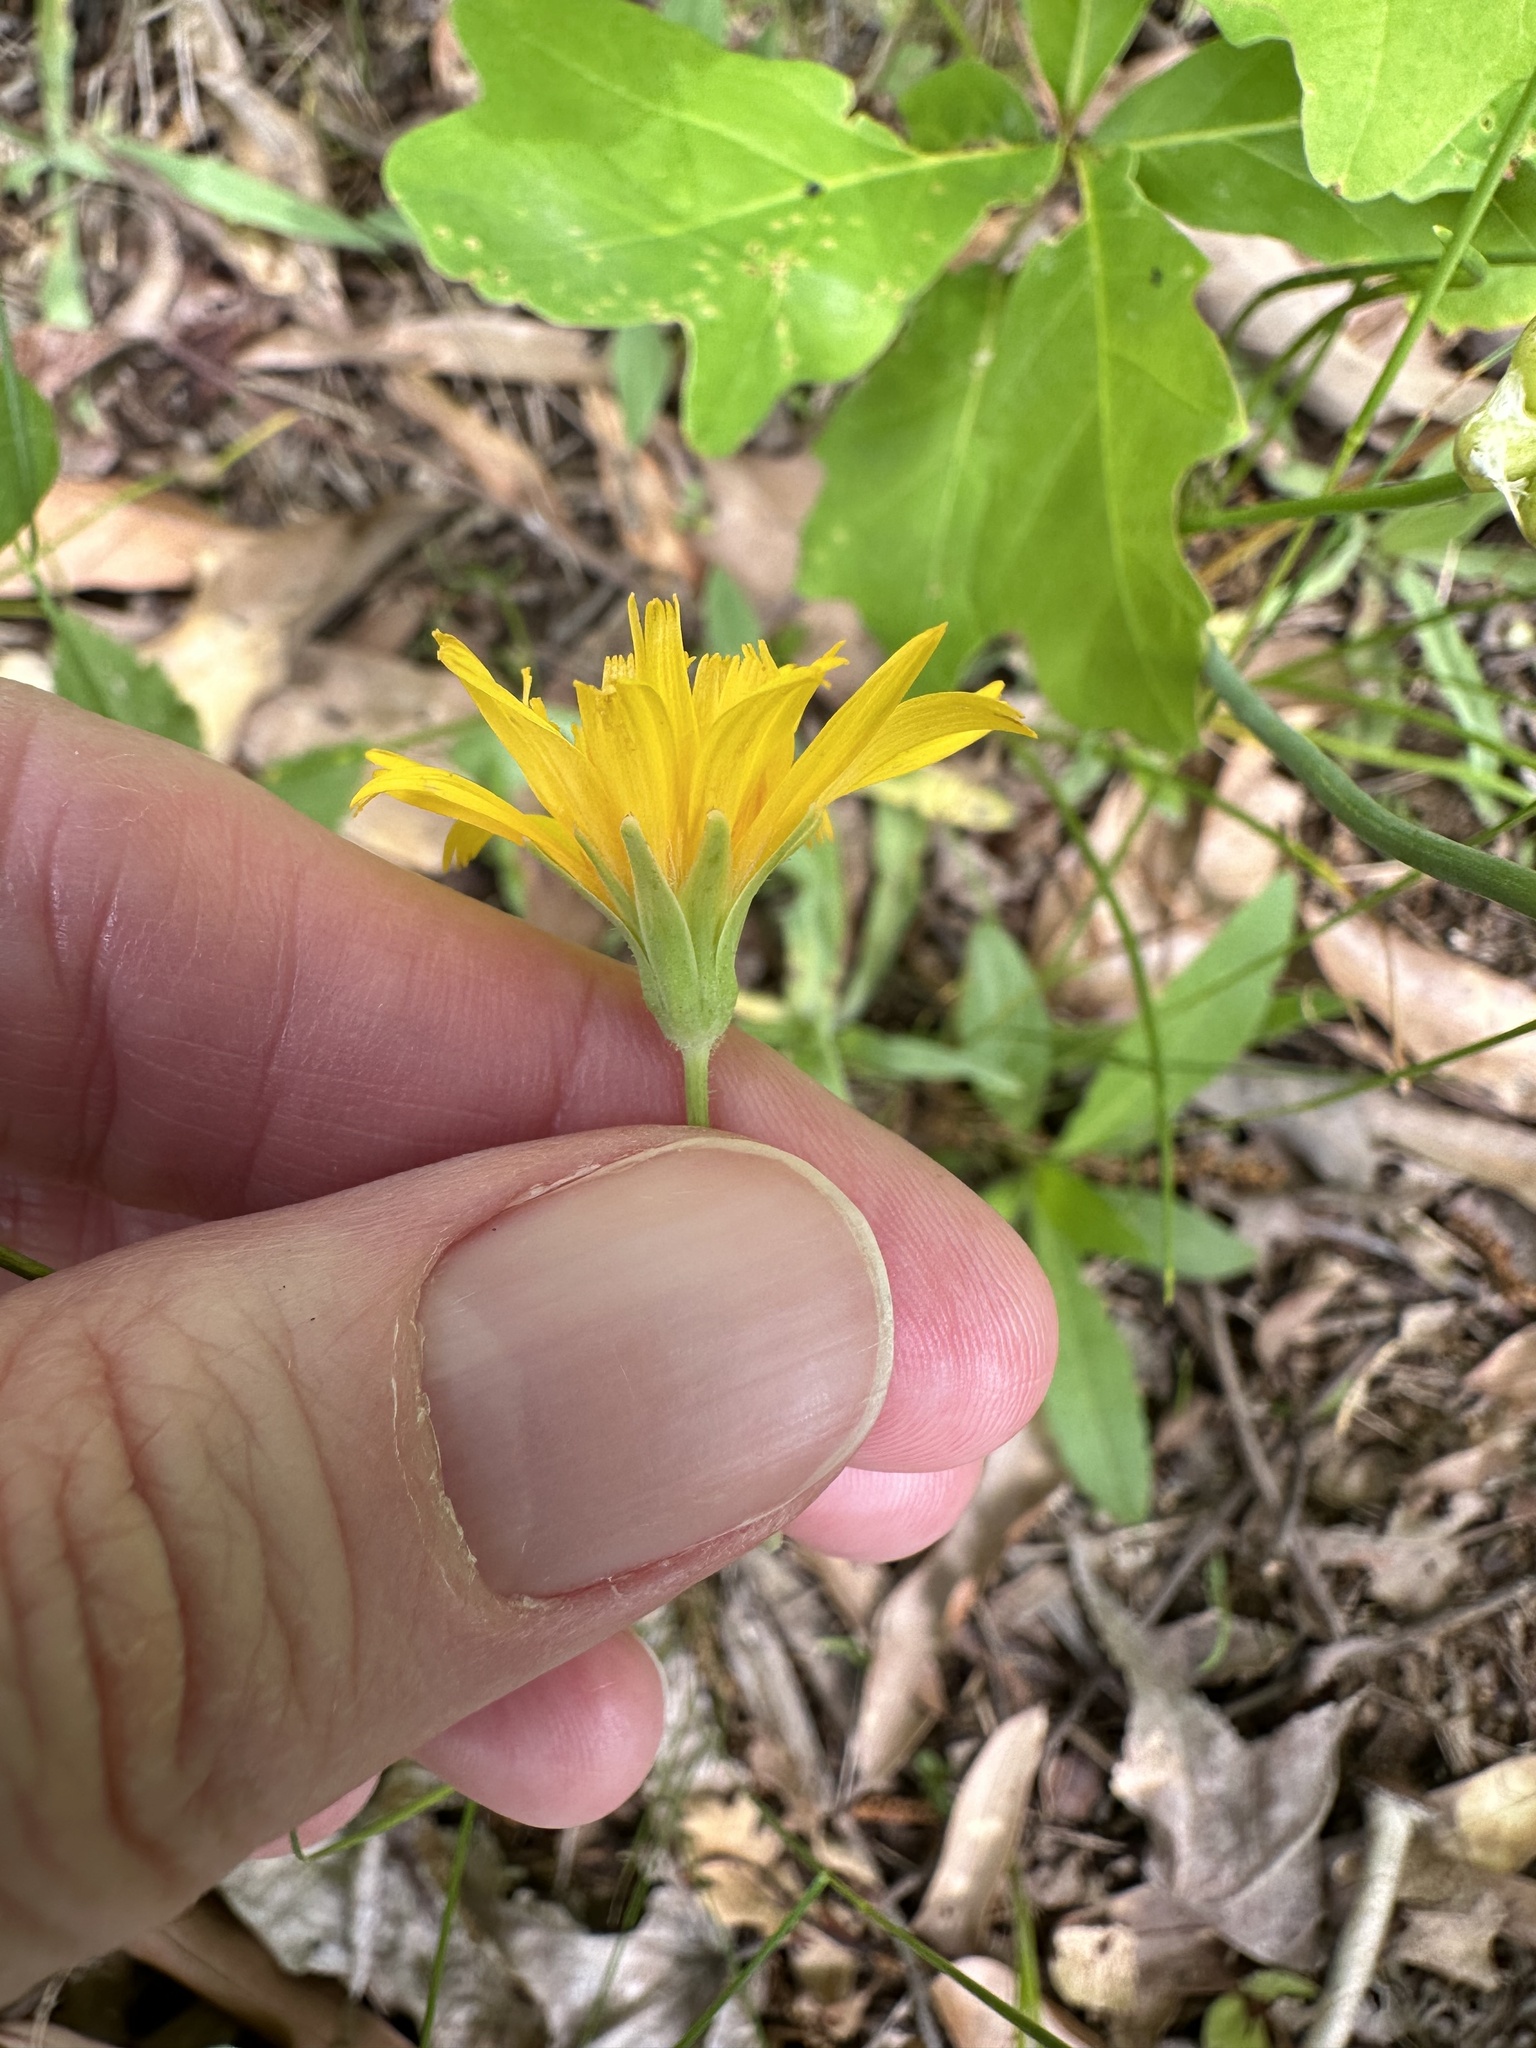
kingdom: Plantae
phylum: Tracheophyta
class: Magnoliopsida
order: Asterales
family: Asteraceae
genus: Krigia
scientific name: Krigia dandelion
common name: Colonial dwarf-dandelion
